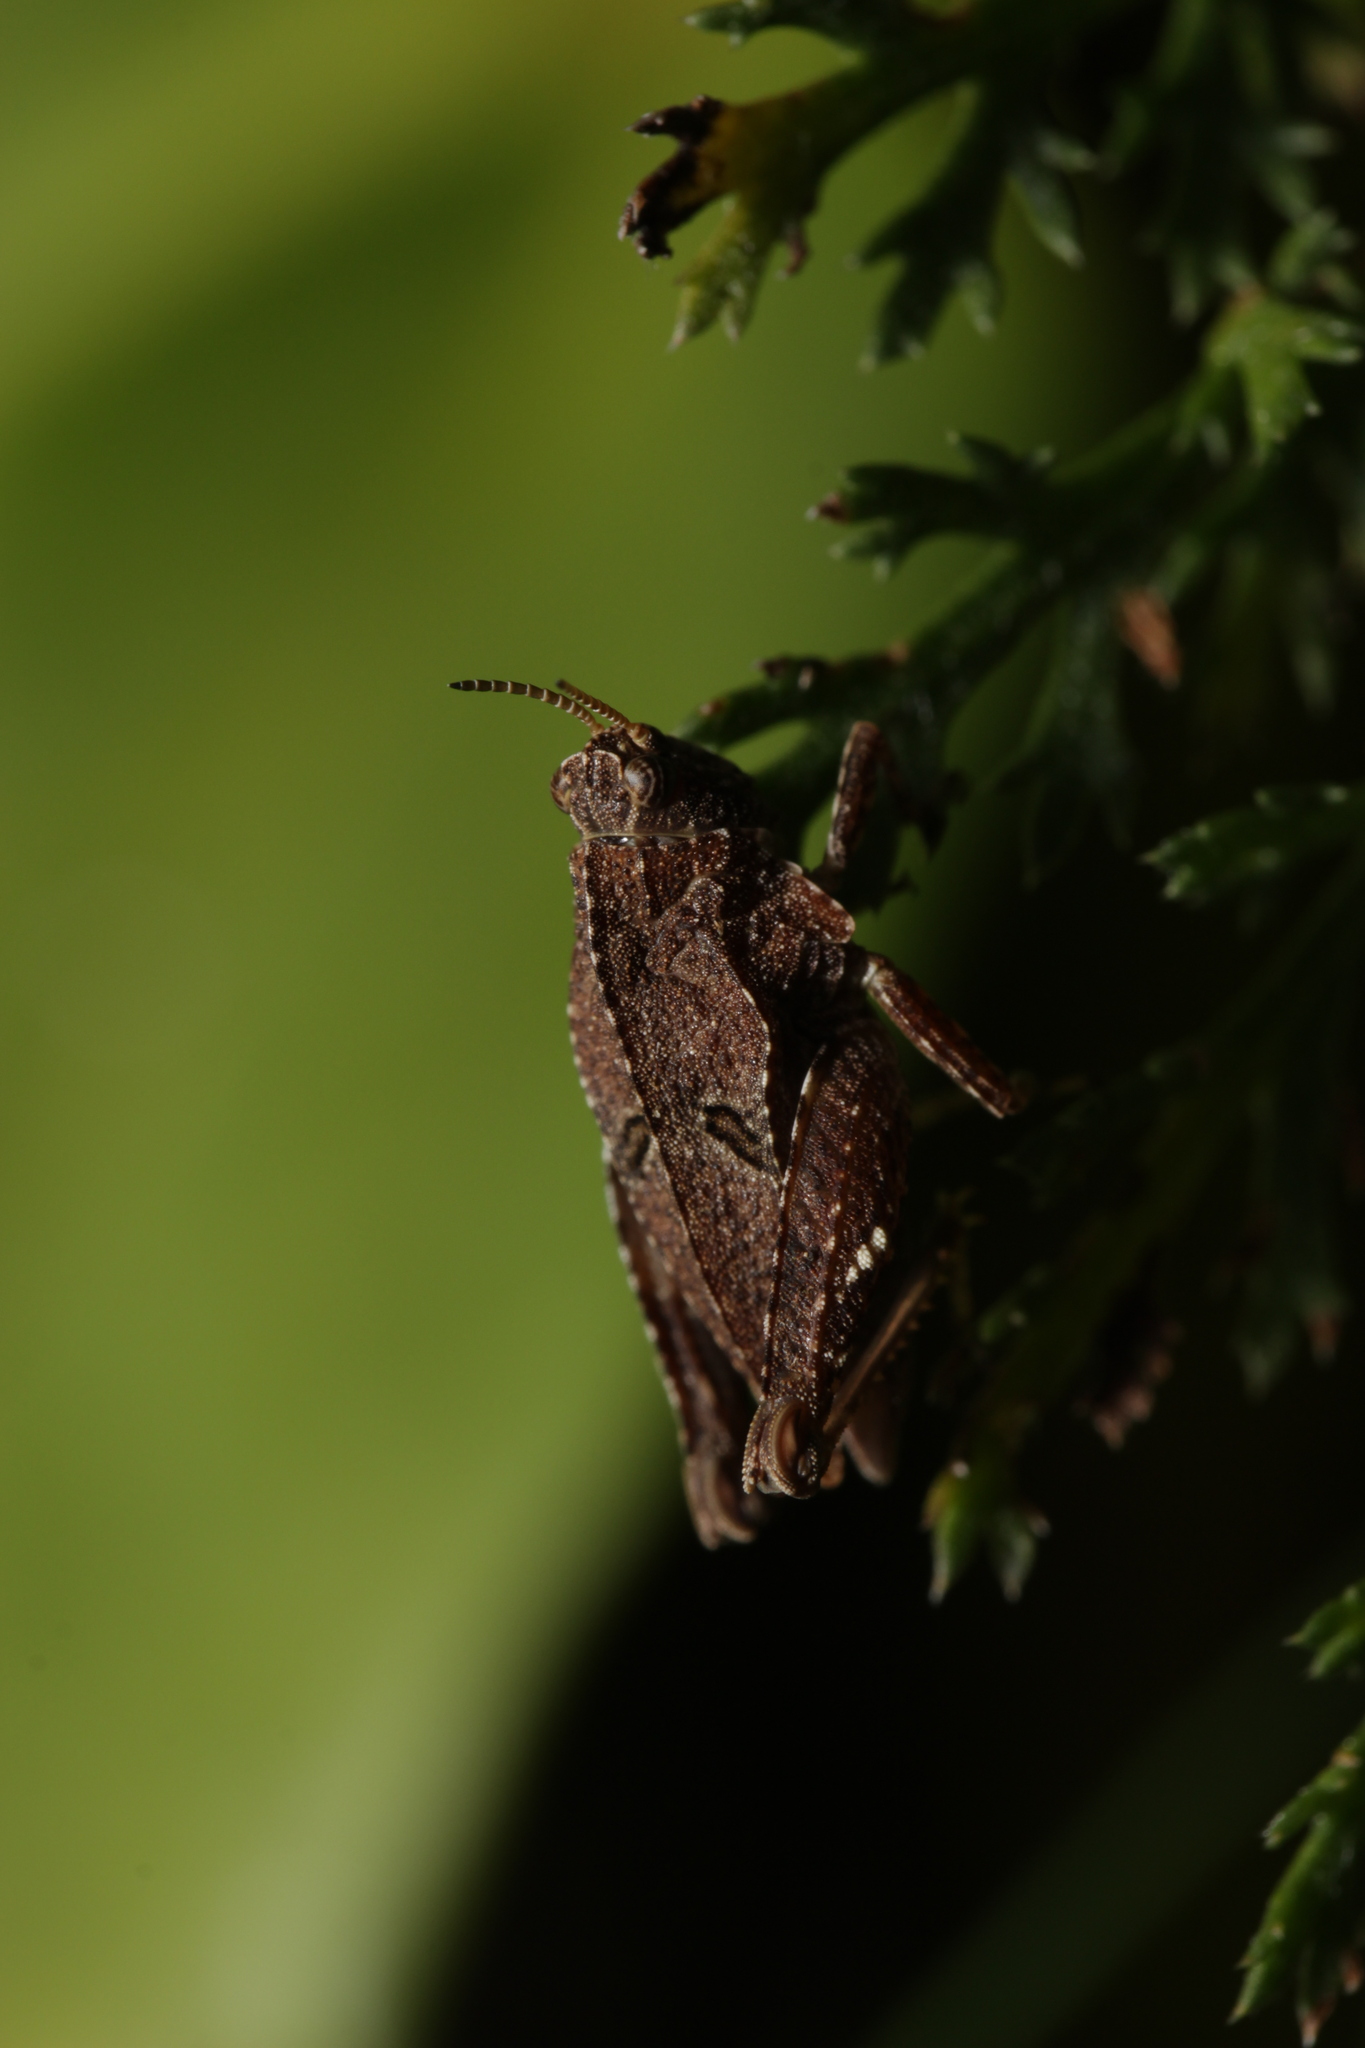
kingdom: Animalia
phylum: Arthropoda
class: Insecta
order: Orthoptera
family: Tetrigidae
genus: Tetrix
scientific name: Tetrix bipunctata
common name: Two-spotted groundhopper
